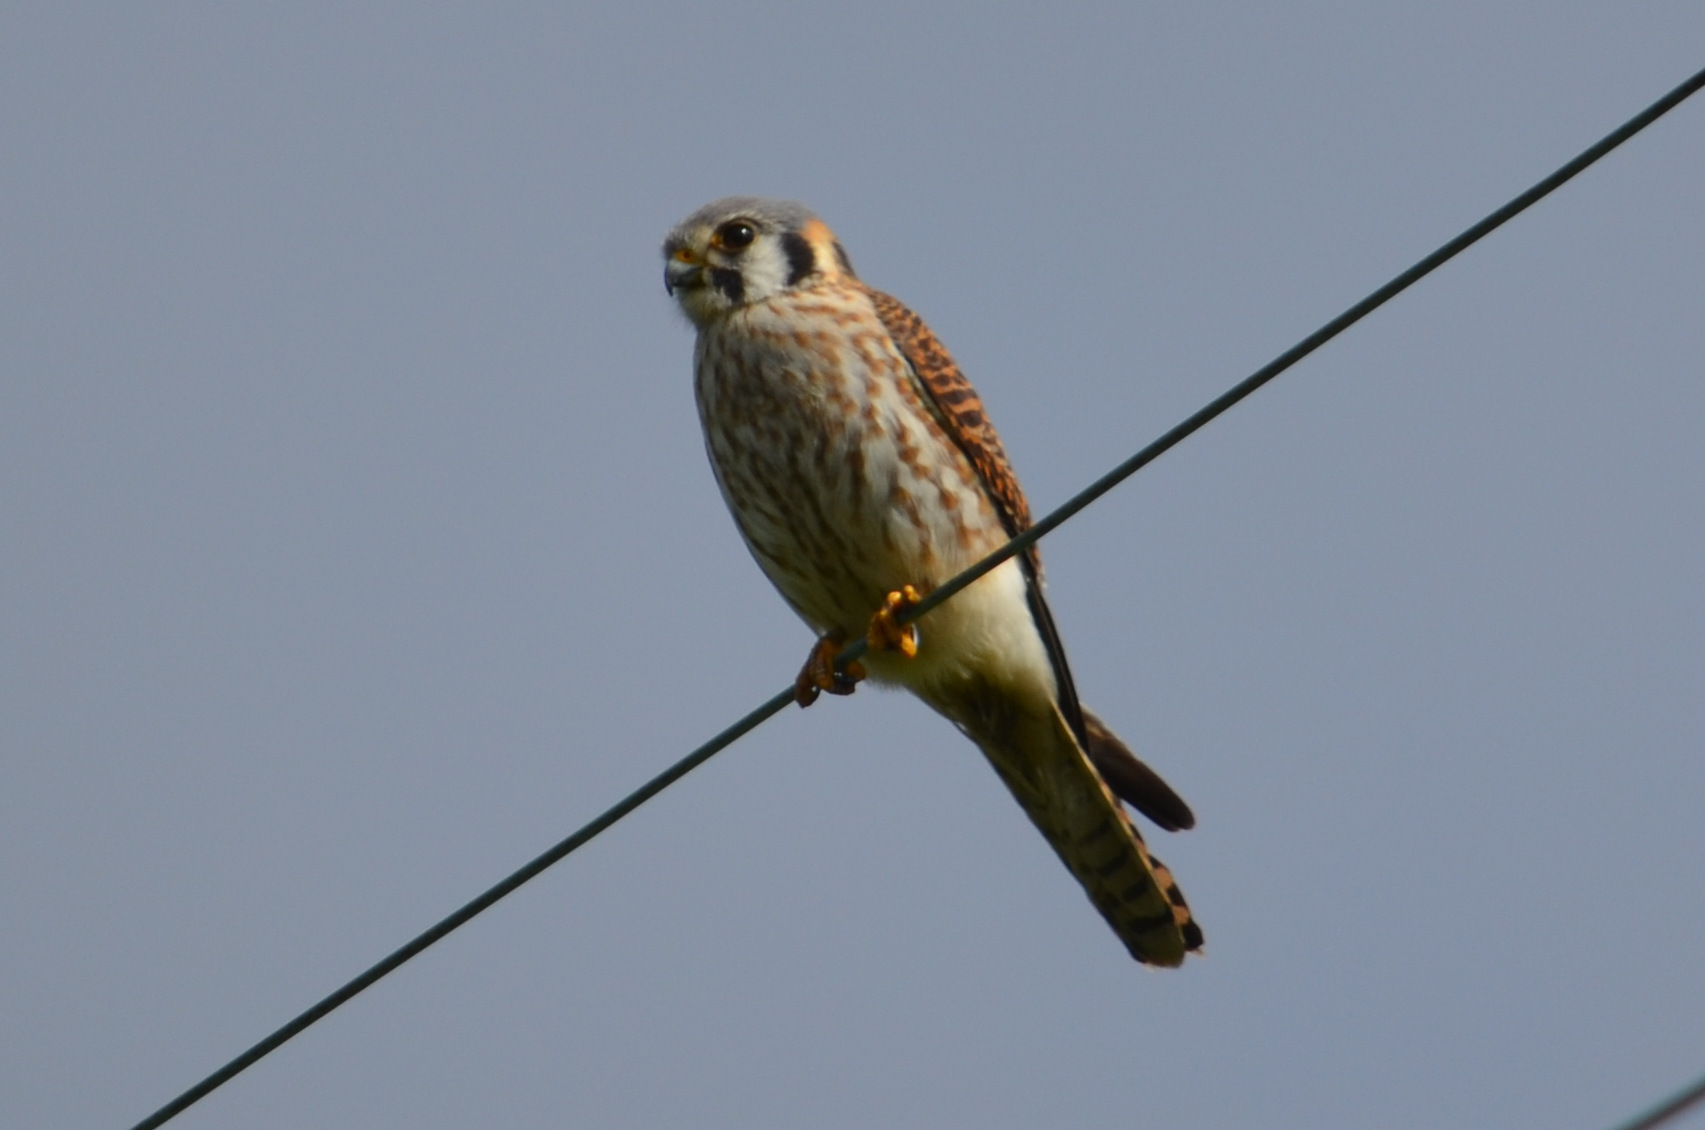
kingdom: Animalia
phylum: Chordata
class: Aves
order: Falconiformes
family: Falconidae
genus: Falco
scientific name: Falco sparverius
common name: American kestrel
